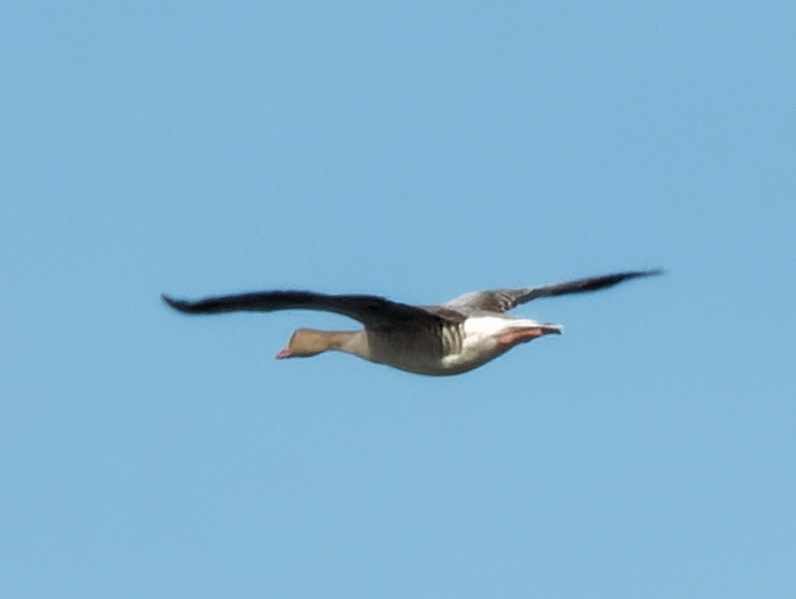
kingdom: Animalia
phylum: Chordata
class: Aves
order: Anseriformes
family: Anatidae
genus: Anser
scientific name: Anser anser
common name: Greylag goose
